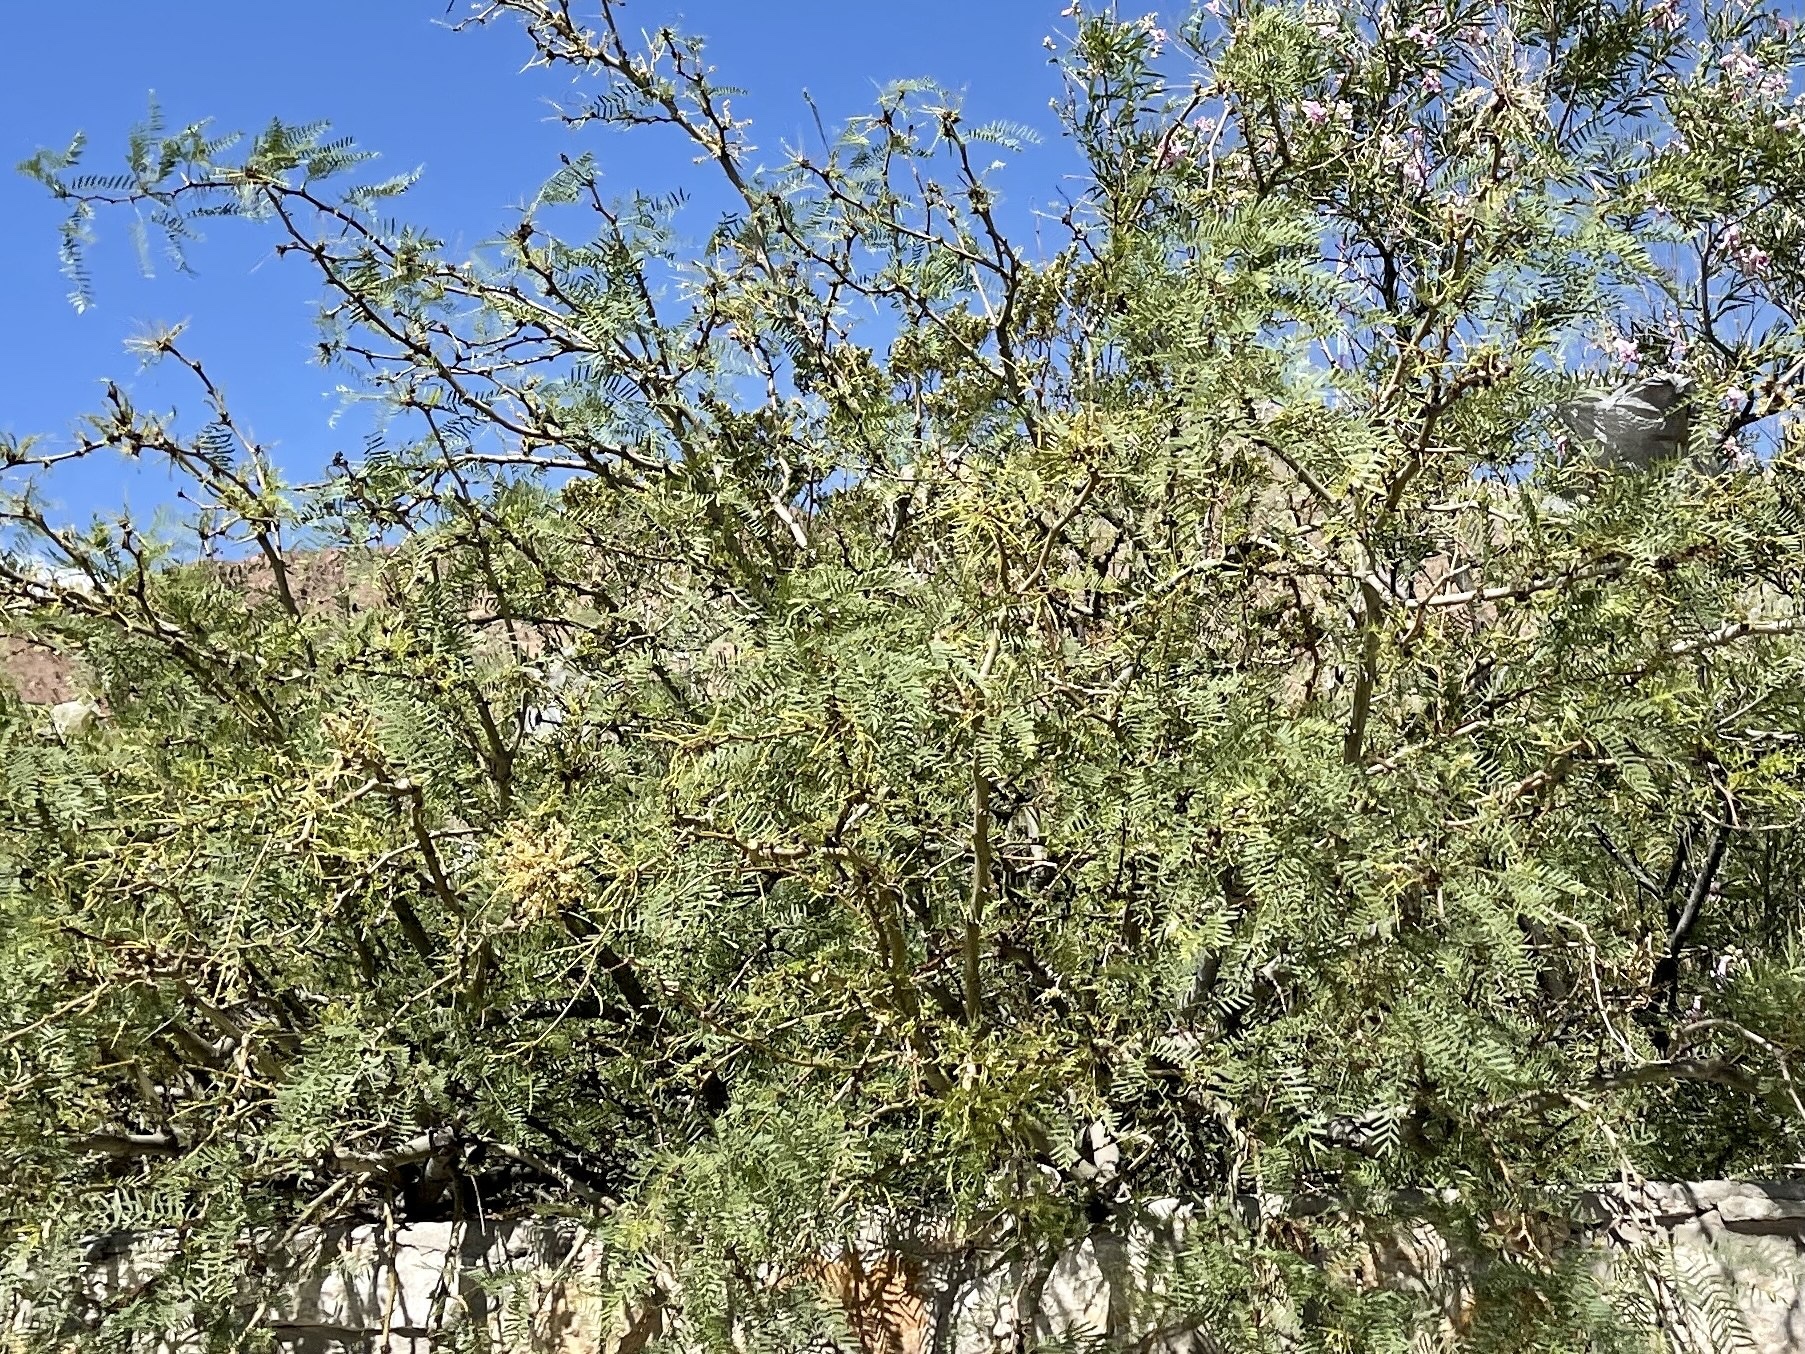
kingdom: Plantae
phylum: Tracheophyta
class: Magnoliopsida
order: Fabales
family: Fabaceae
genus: Prosopis
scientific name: Prosopis glandulosa
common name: Honey mesquite
